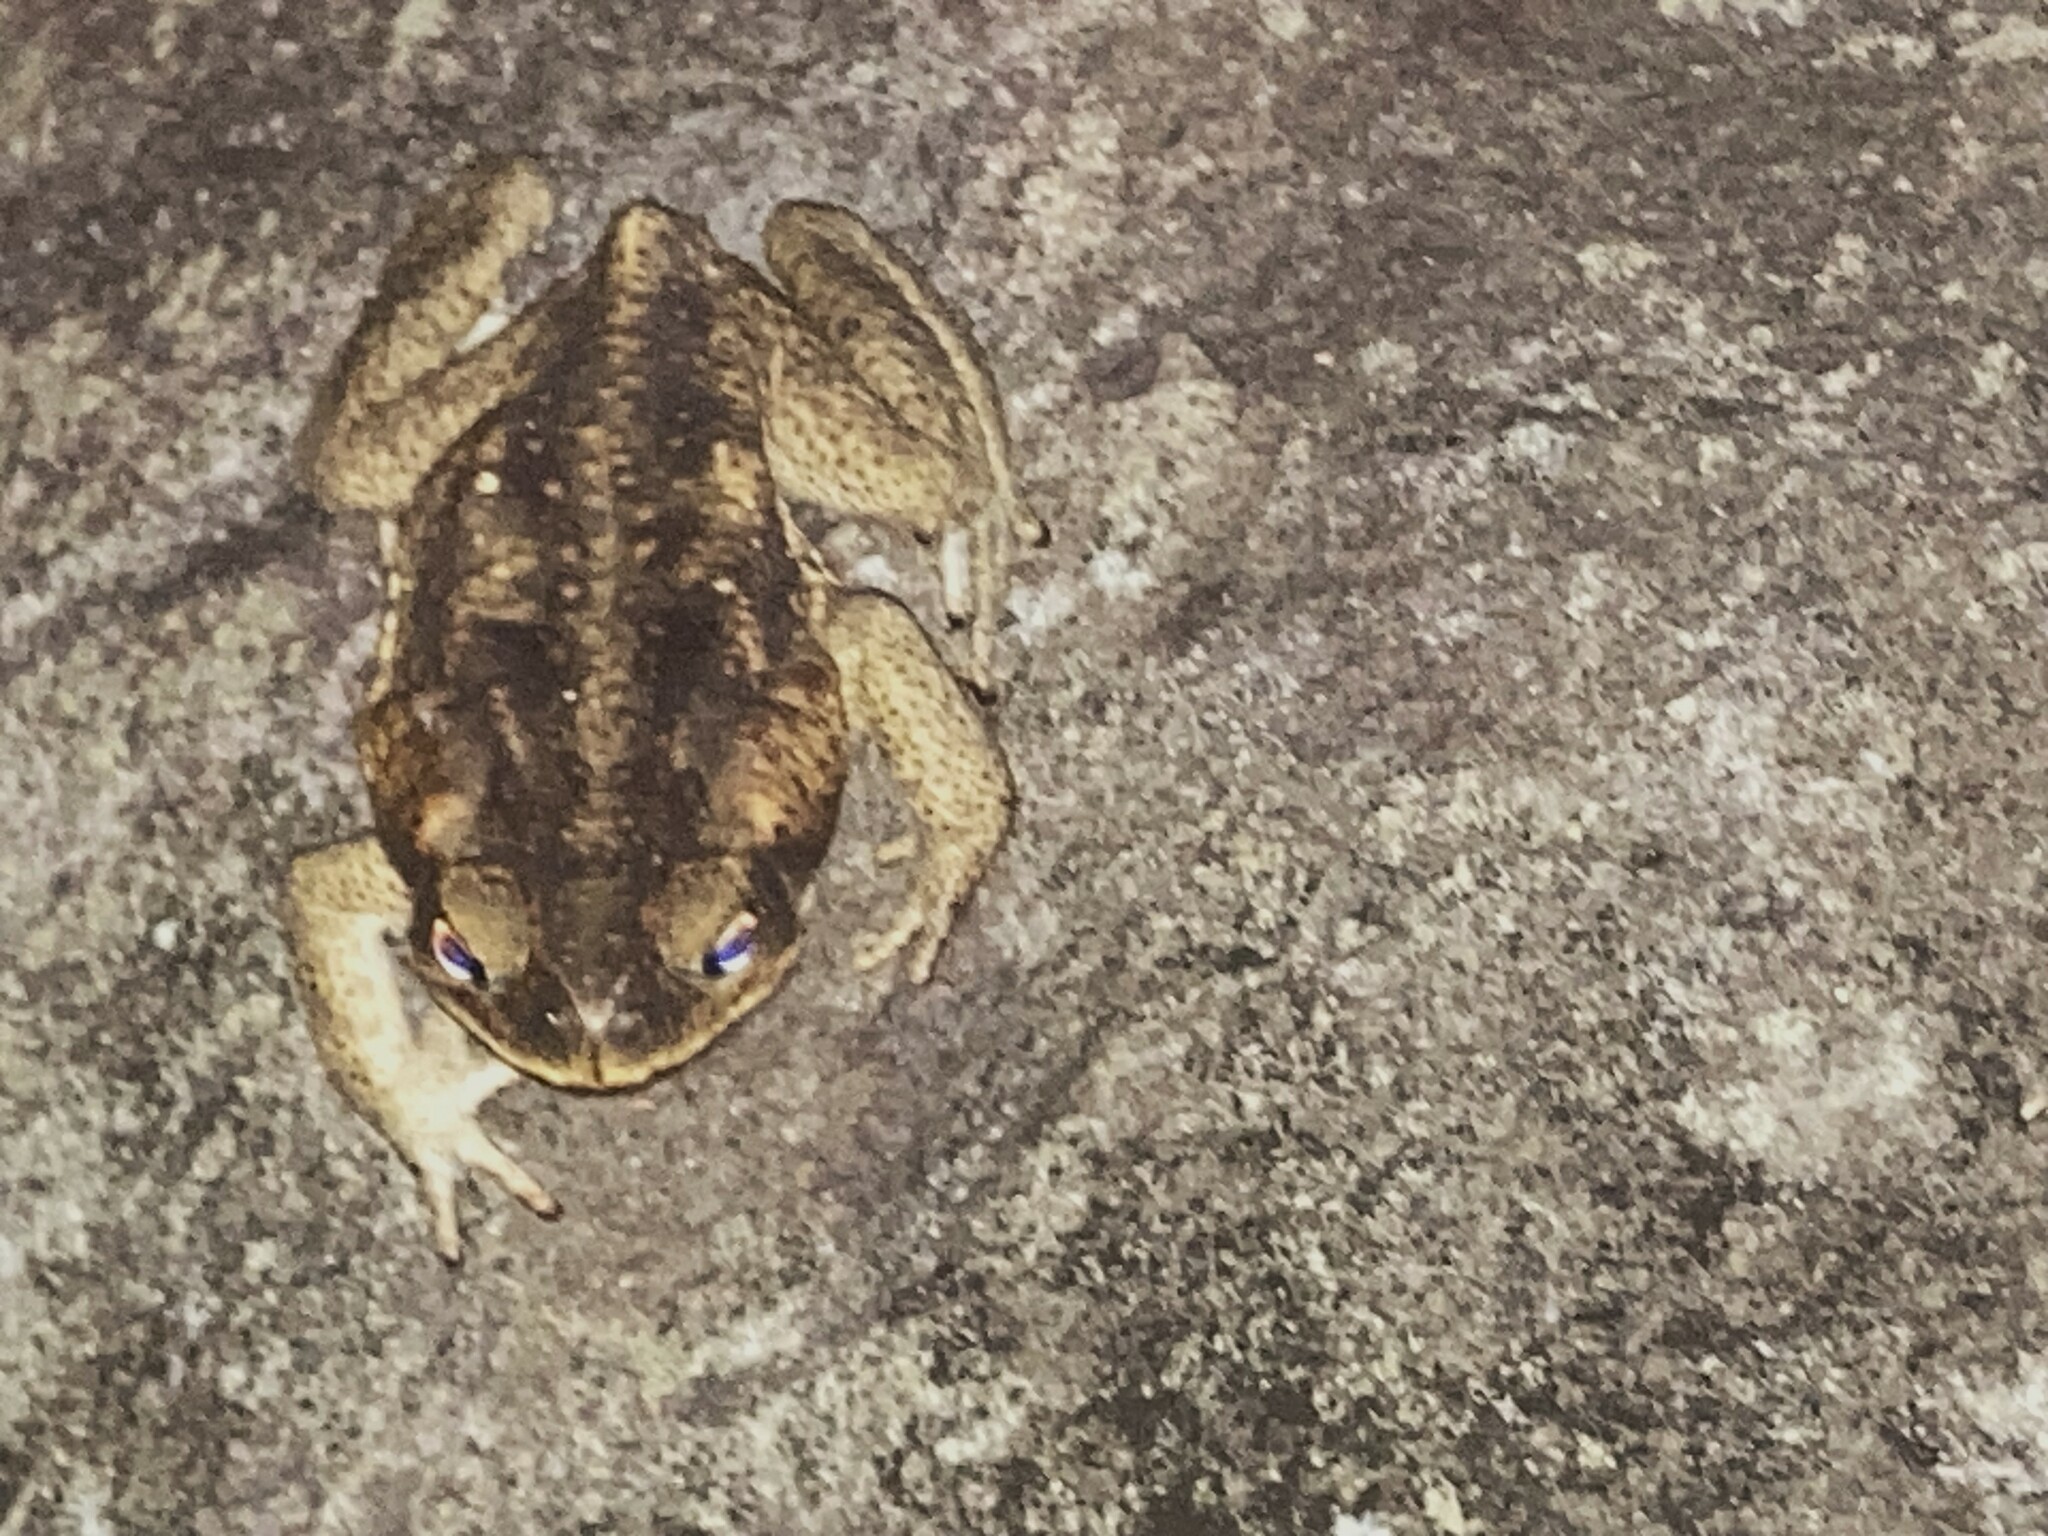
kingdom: Animalia
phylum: Chordata
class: Amphibia
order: Anura
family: Bufonidae
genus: Rhinella
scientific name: Rhinella marina
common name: Cane toad
